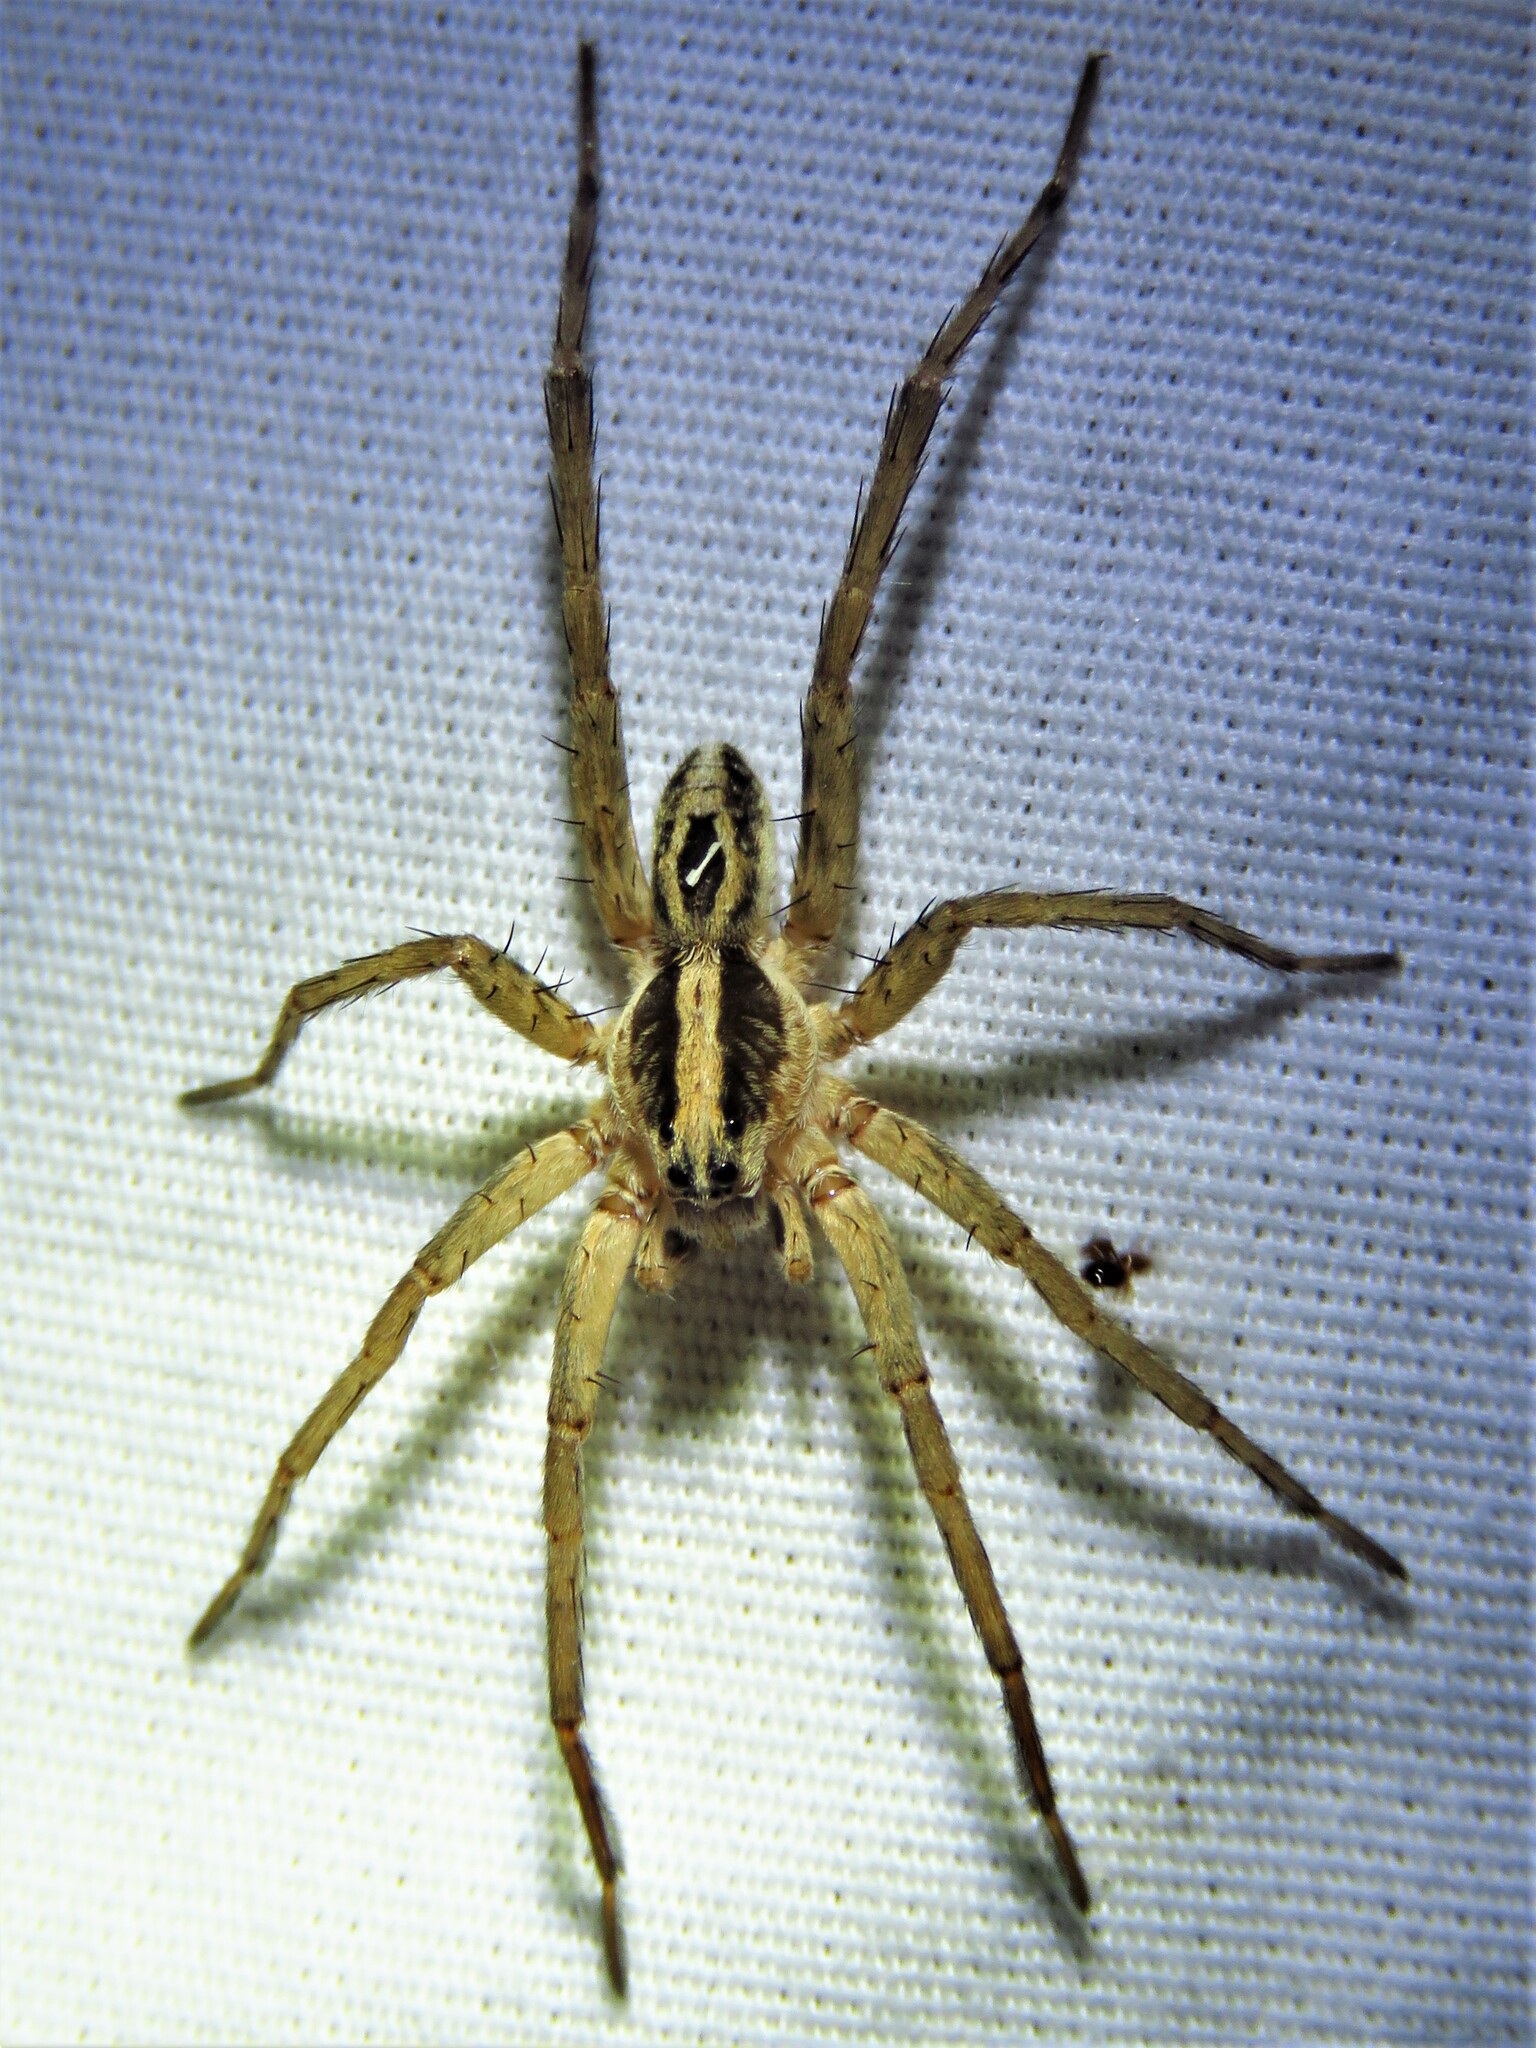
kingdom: Animalia
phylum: Arthropoda
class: Arachnida
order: Araneae
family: Lycosidae
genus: Schizocosa
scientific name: Schizocosa avida
